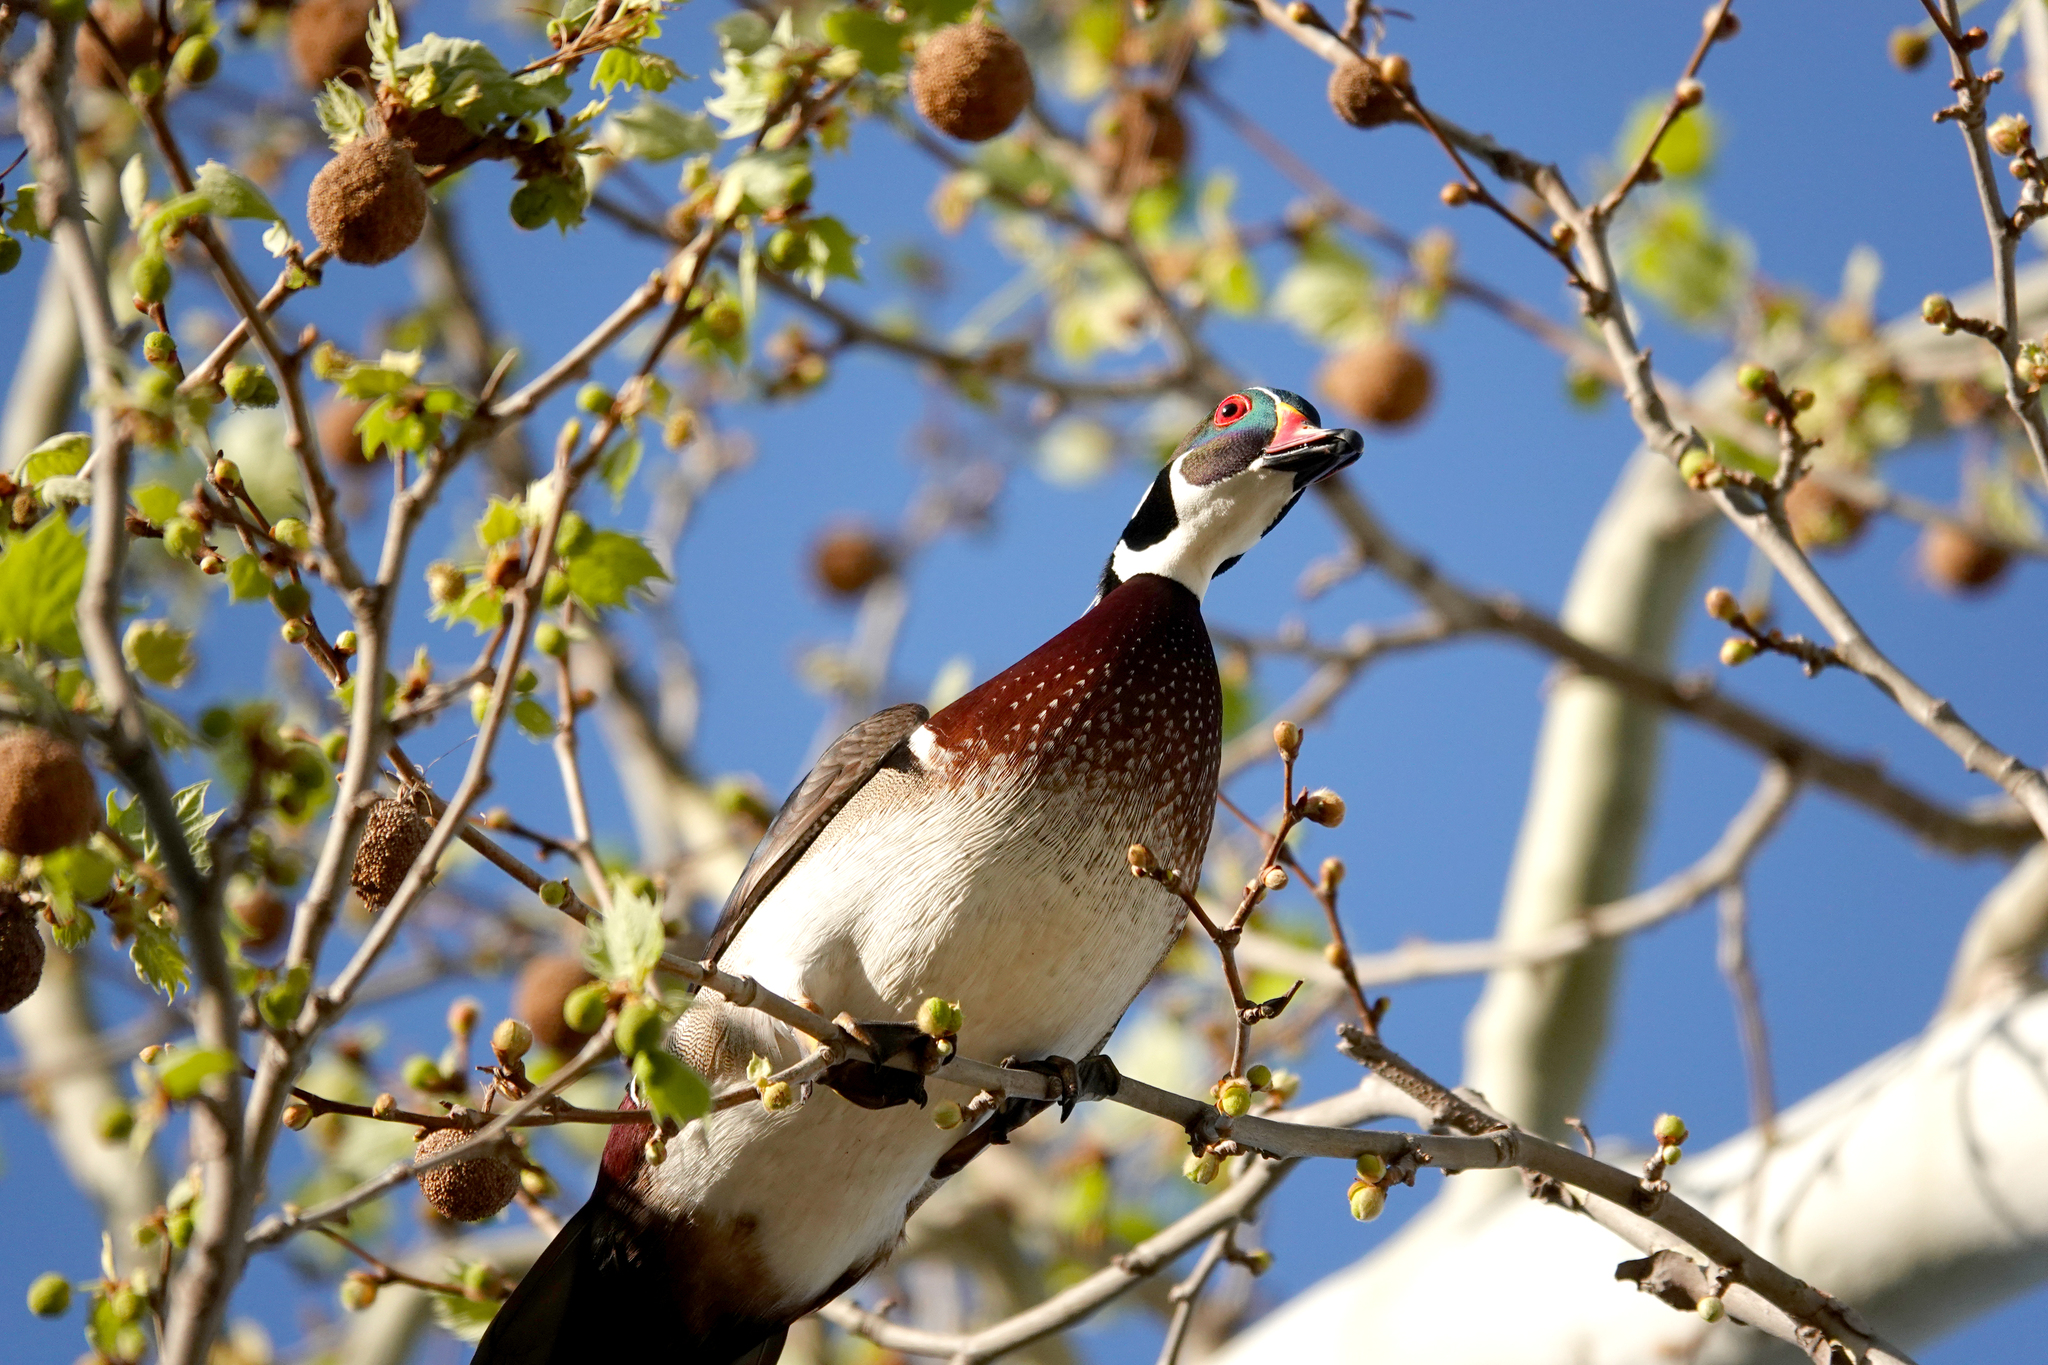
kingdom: Animalia
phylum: Chordata
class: Aves
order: Anseriformes
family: Anatidae
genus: Aix
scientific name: Aix sponsa
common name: Wood duck
